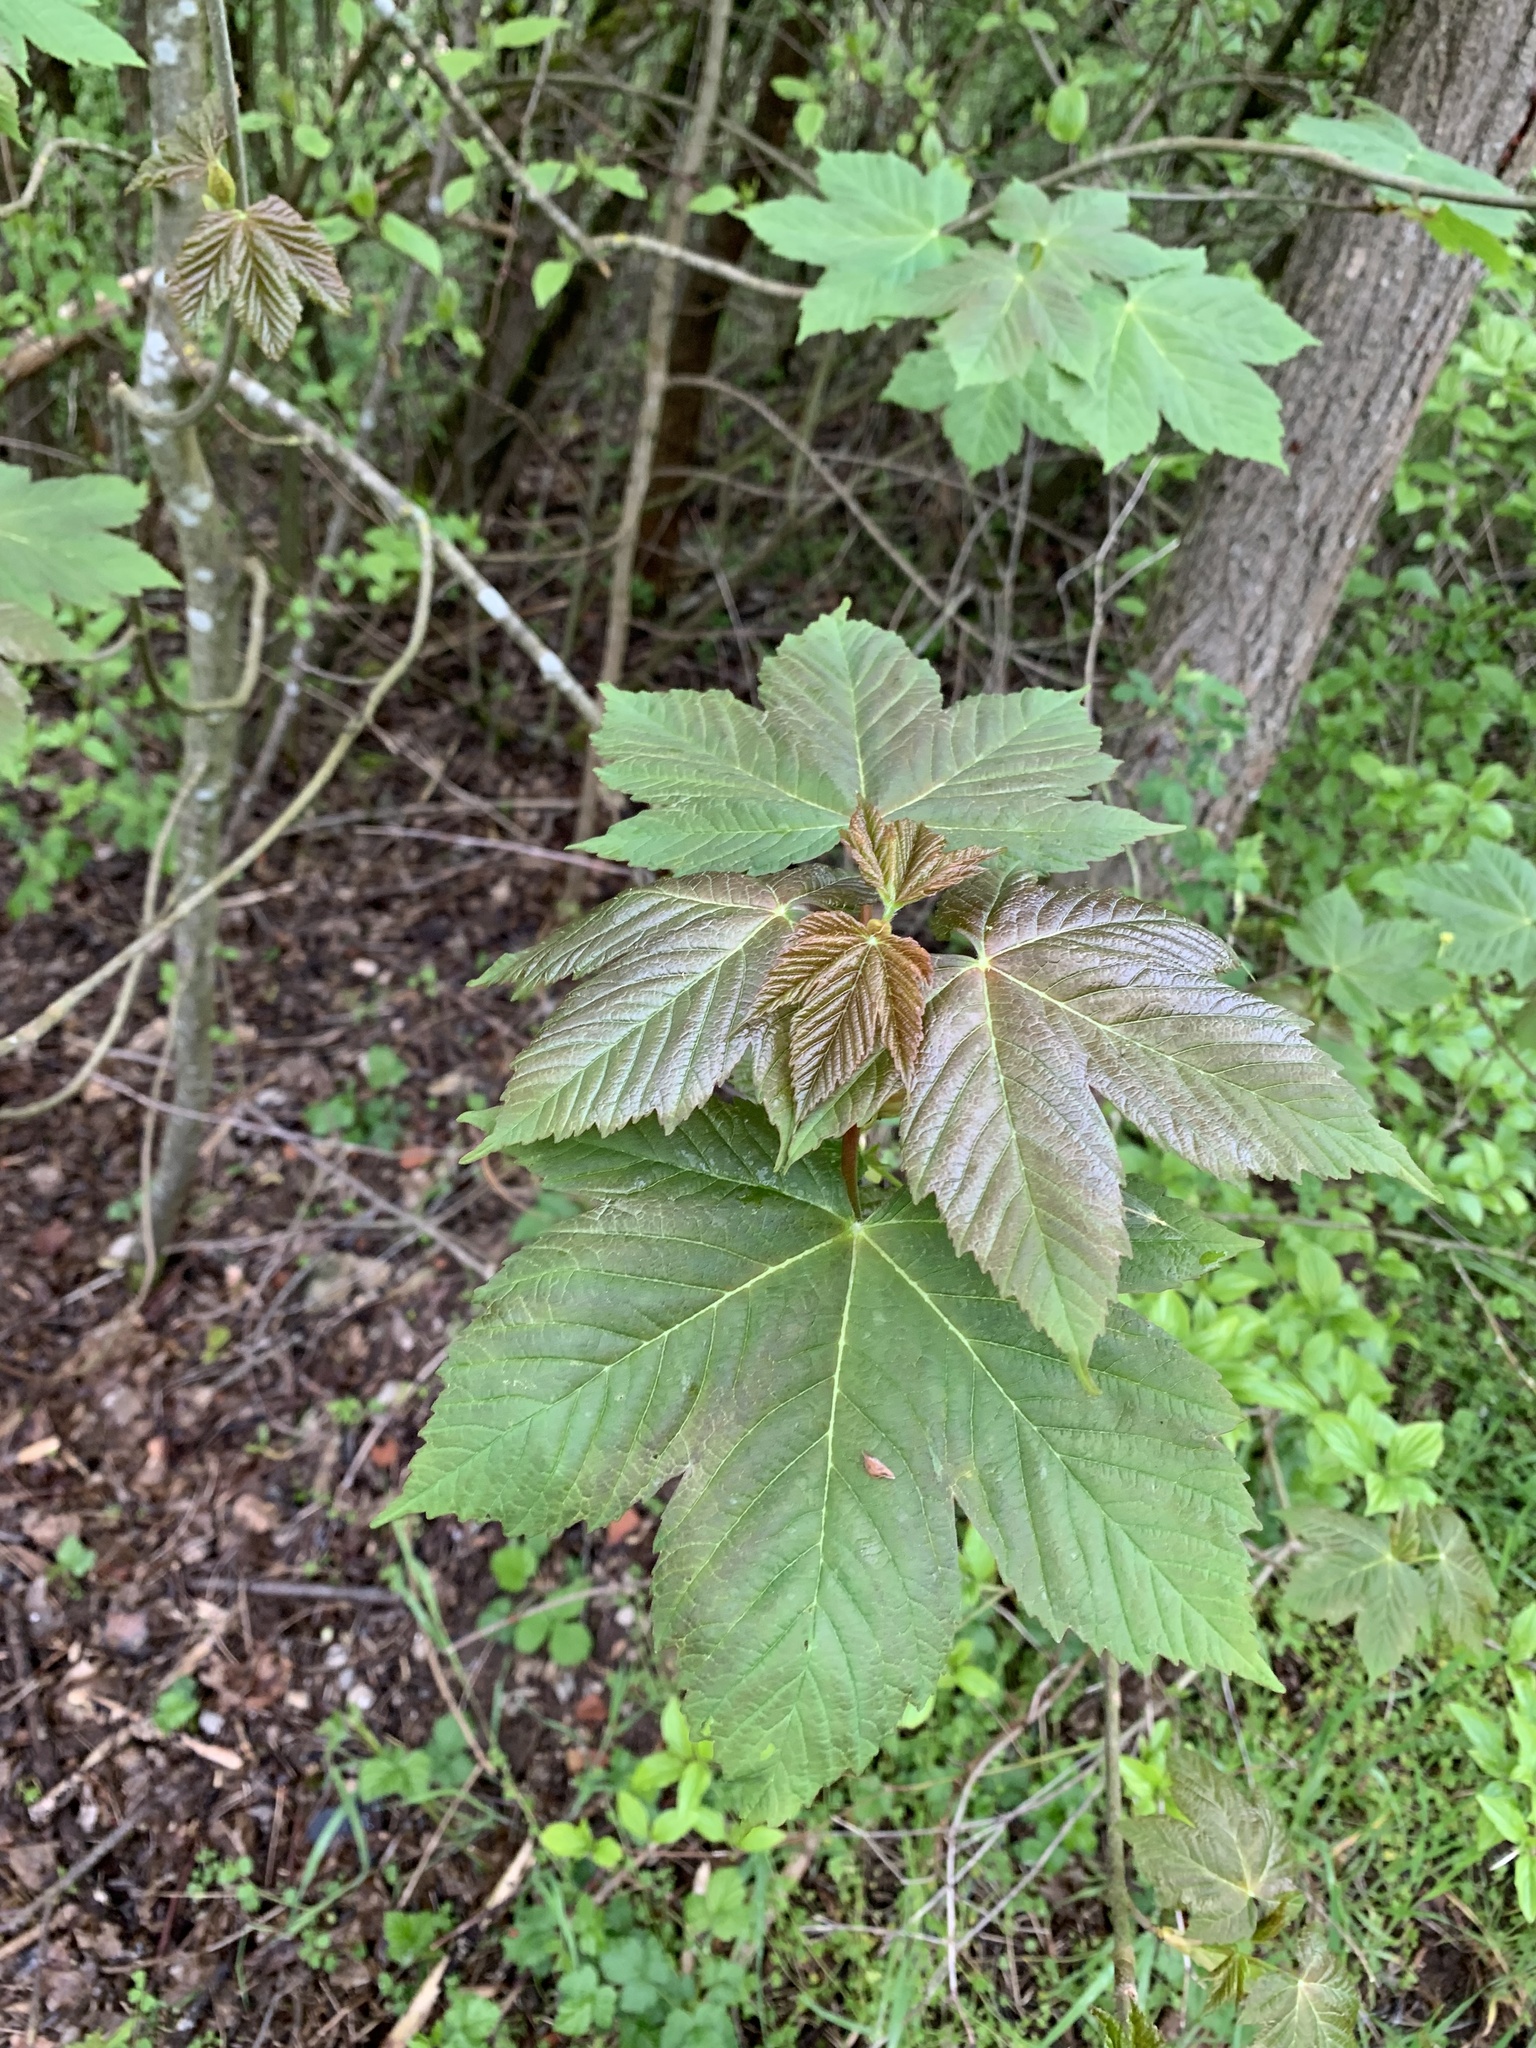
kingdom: Plantae
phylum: Tracheophyta
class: Magnoliopsida
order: Sapindales
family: Sapindaceae
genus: Acer
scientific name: Acer pseudoplatanus
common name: Sycamore
